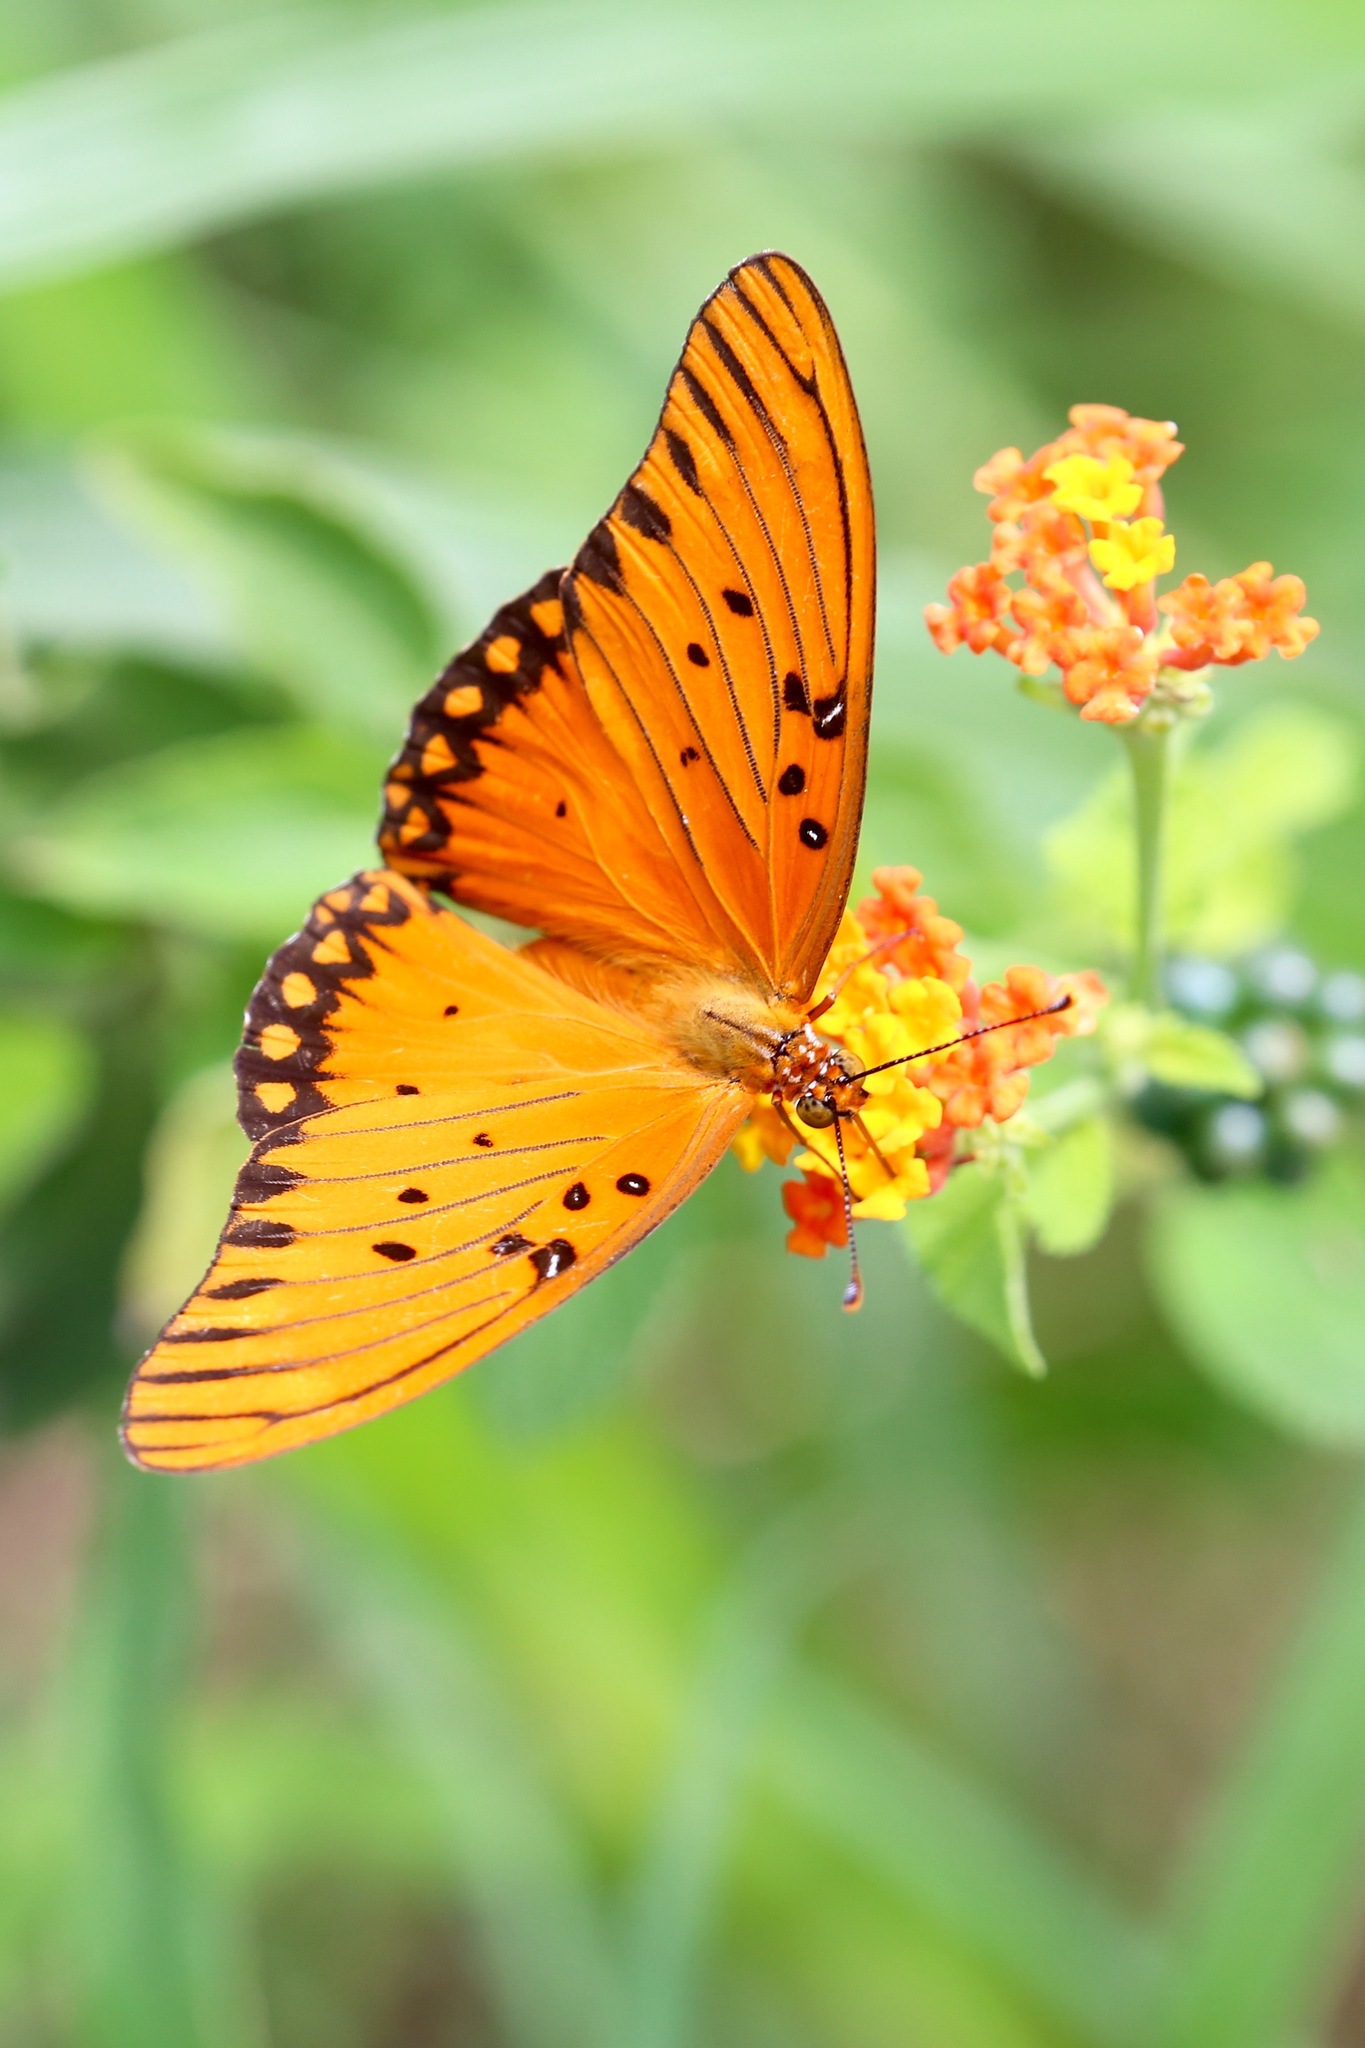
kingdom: Animalia
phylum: Arthropoda
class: Insecta
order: Lepidoptera
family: Nymphalidae
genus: Dione
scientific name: Dione vanillae
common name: Gulf fritillary
